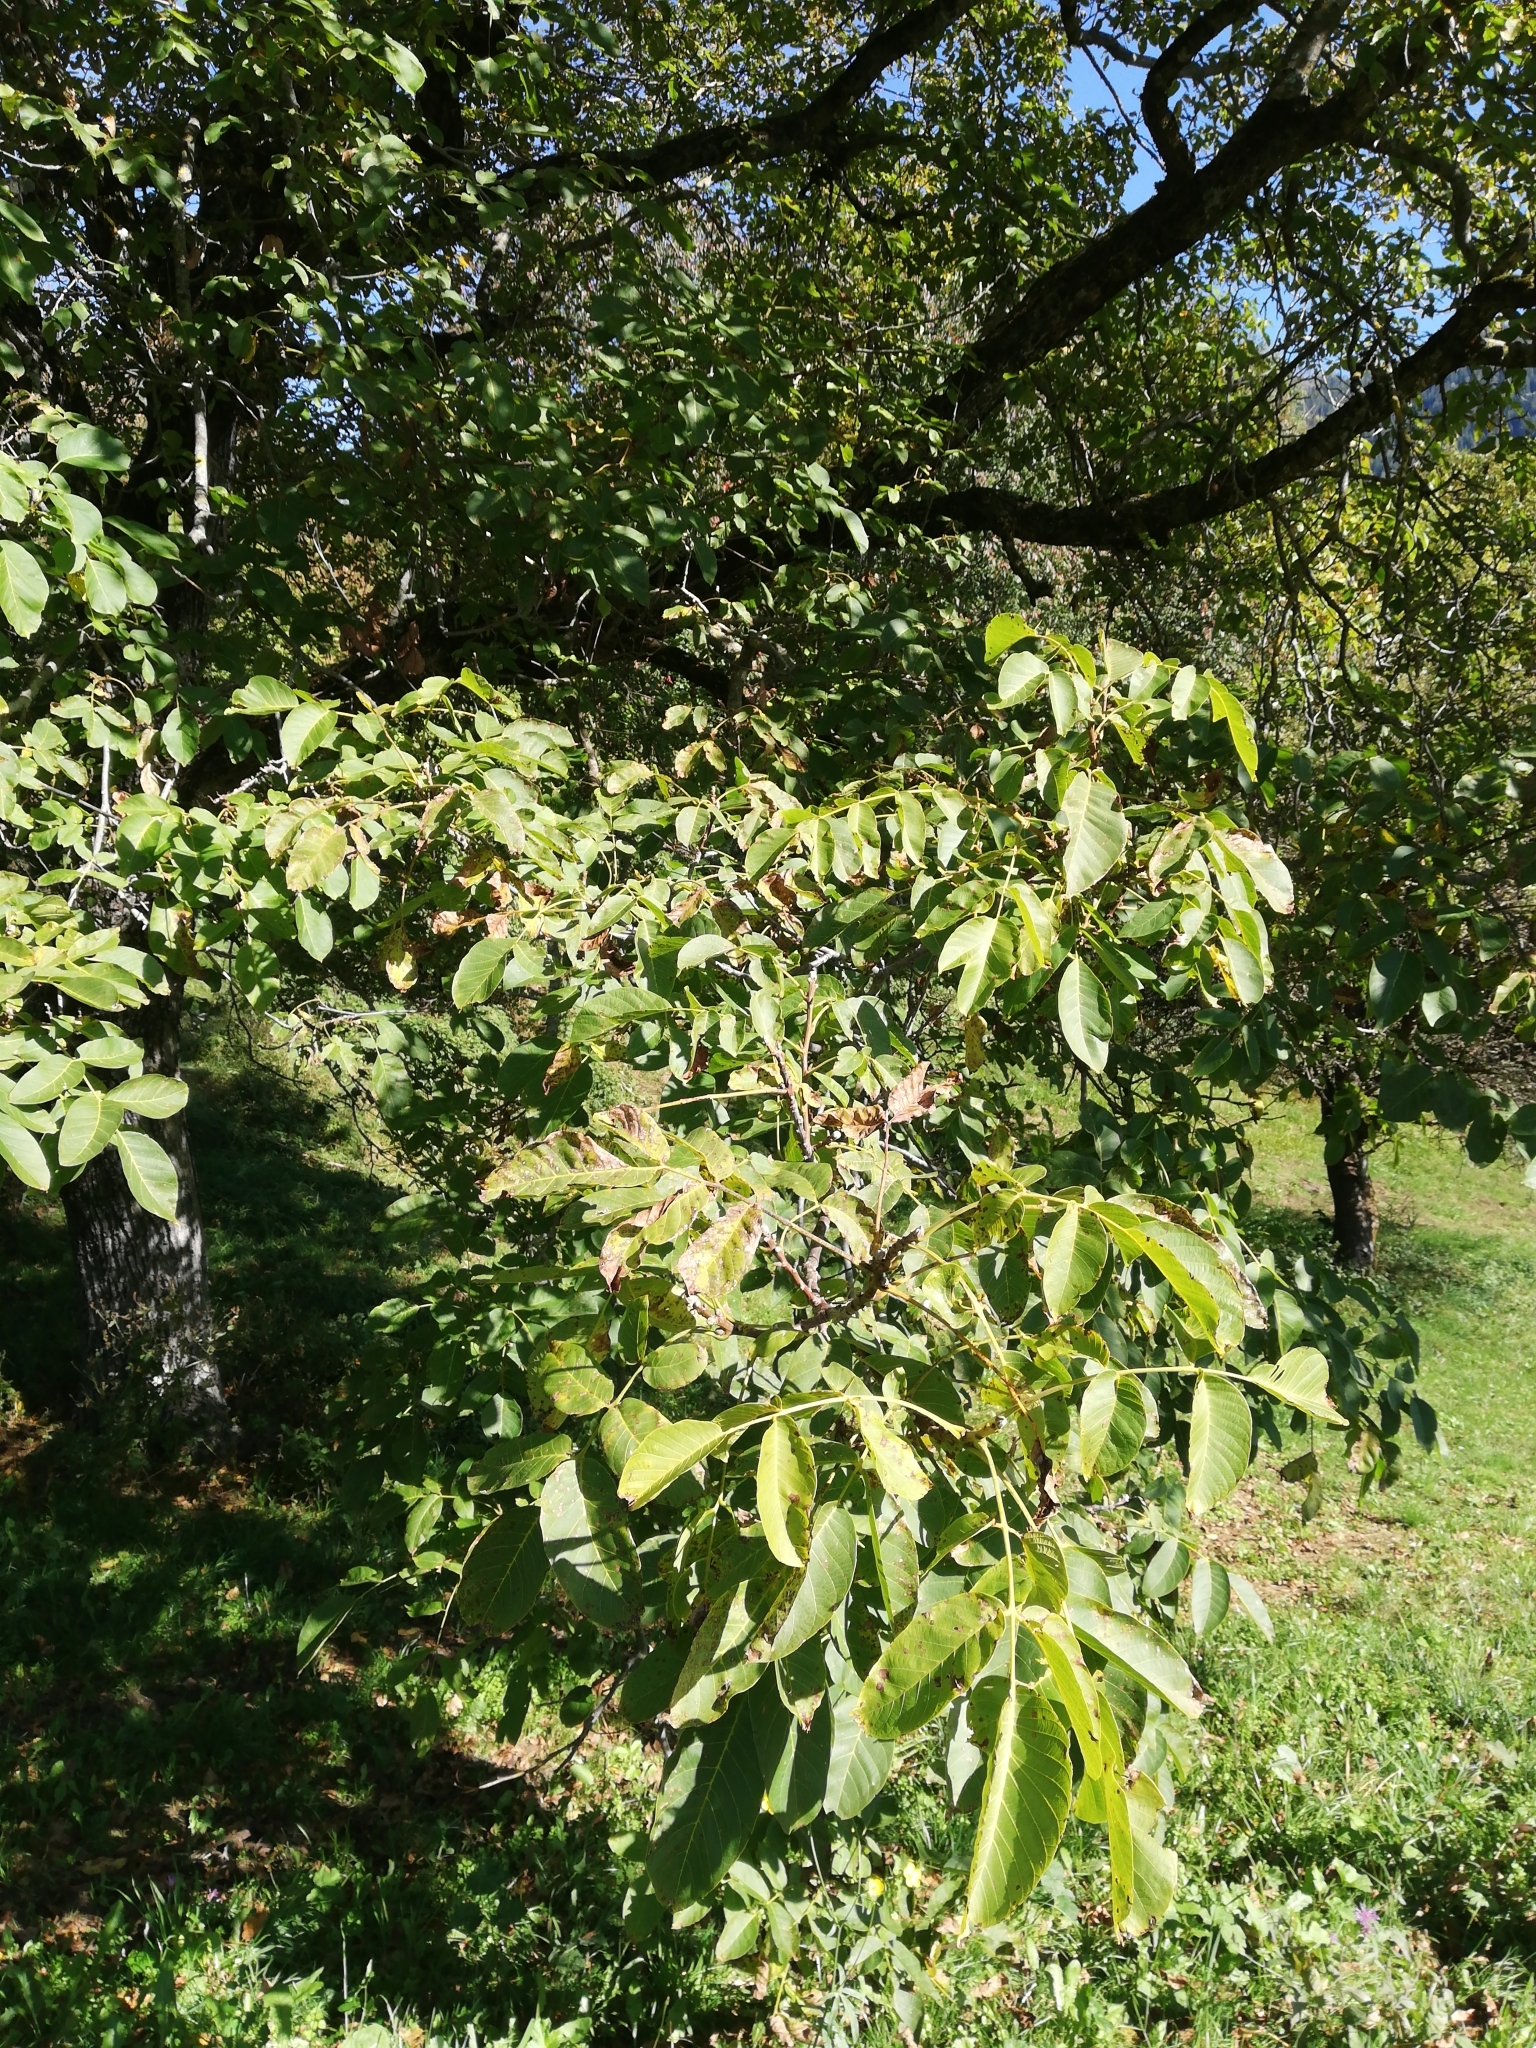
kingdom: Plantae
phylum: Tracheophyta
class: Magnoliopsida
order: Fagales
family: Juglandaceae
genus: Juglans
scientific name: Juglans regia
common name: Walnut
